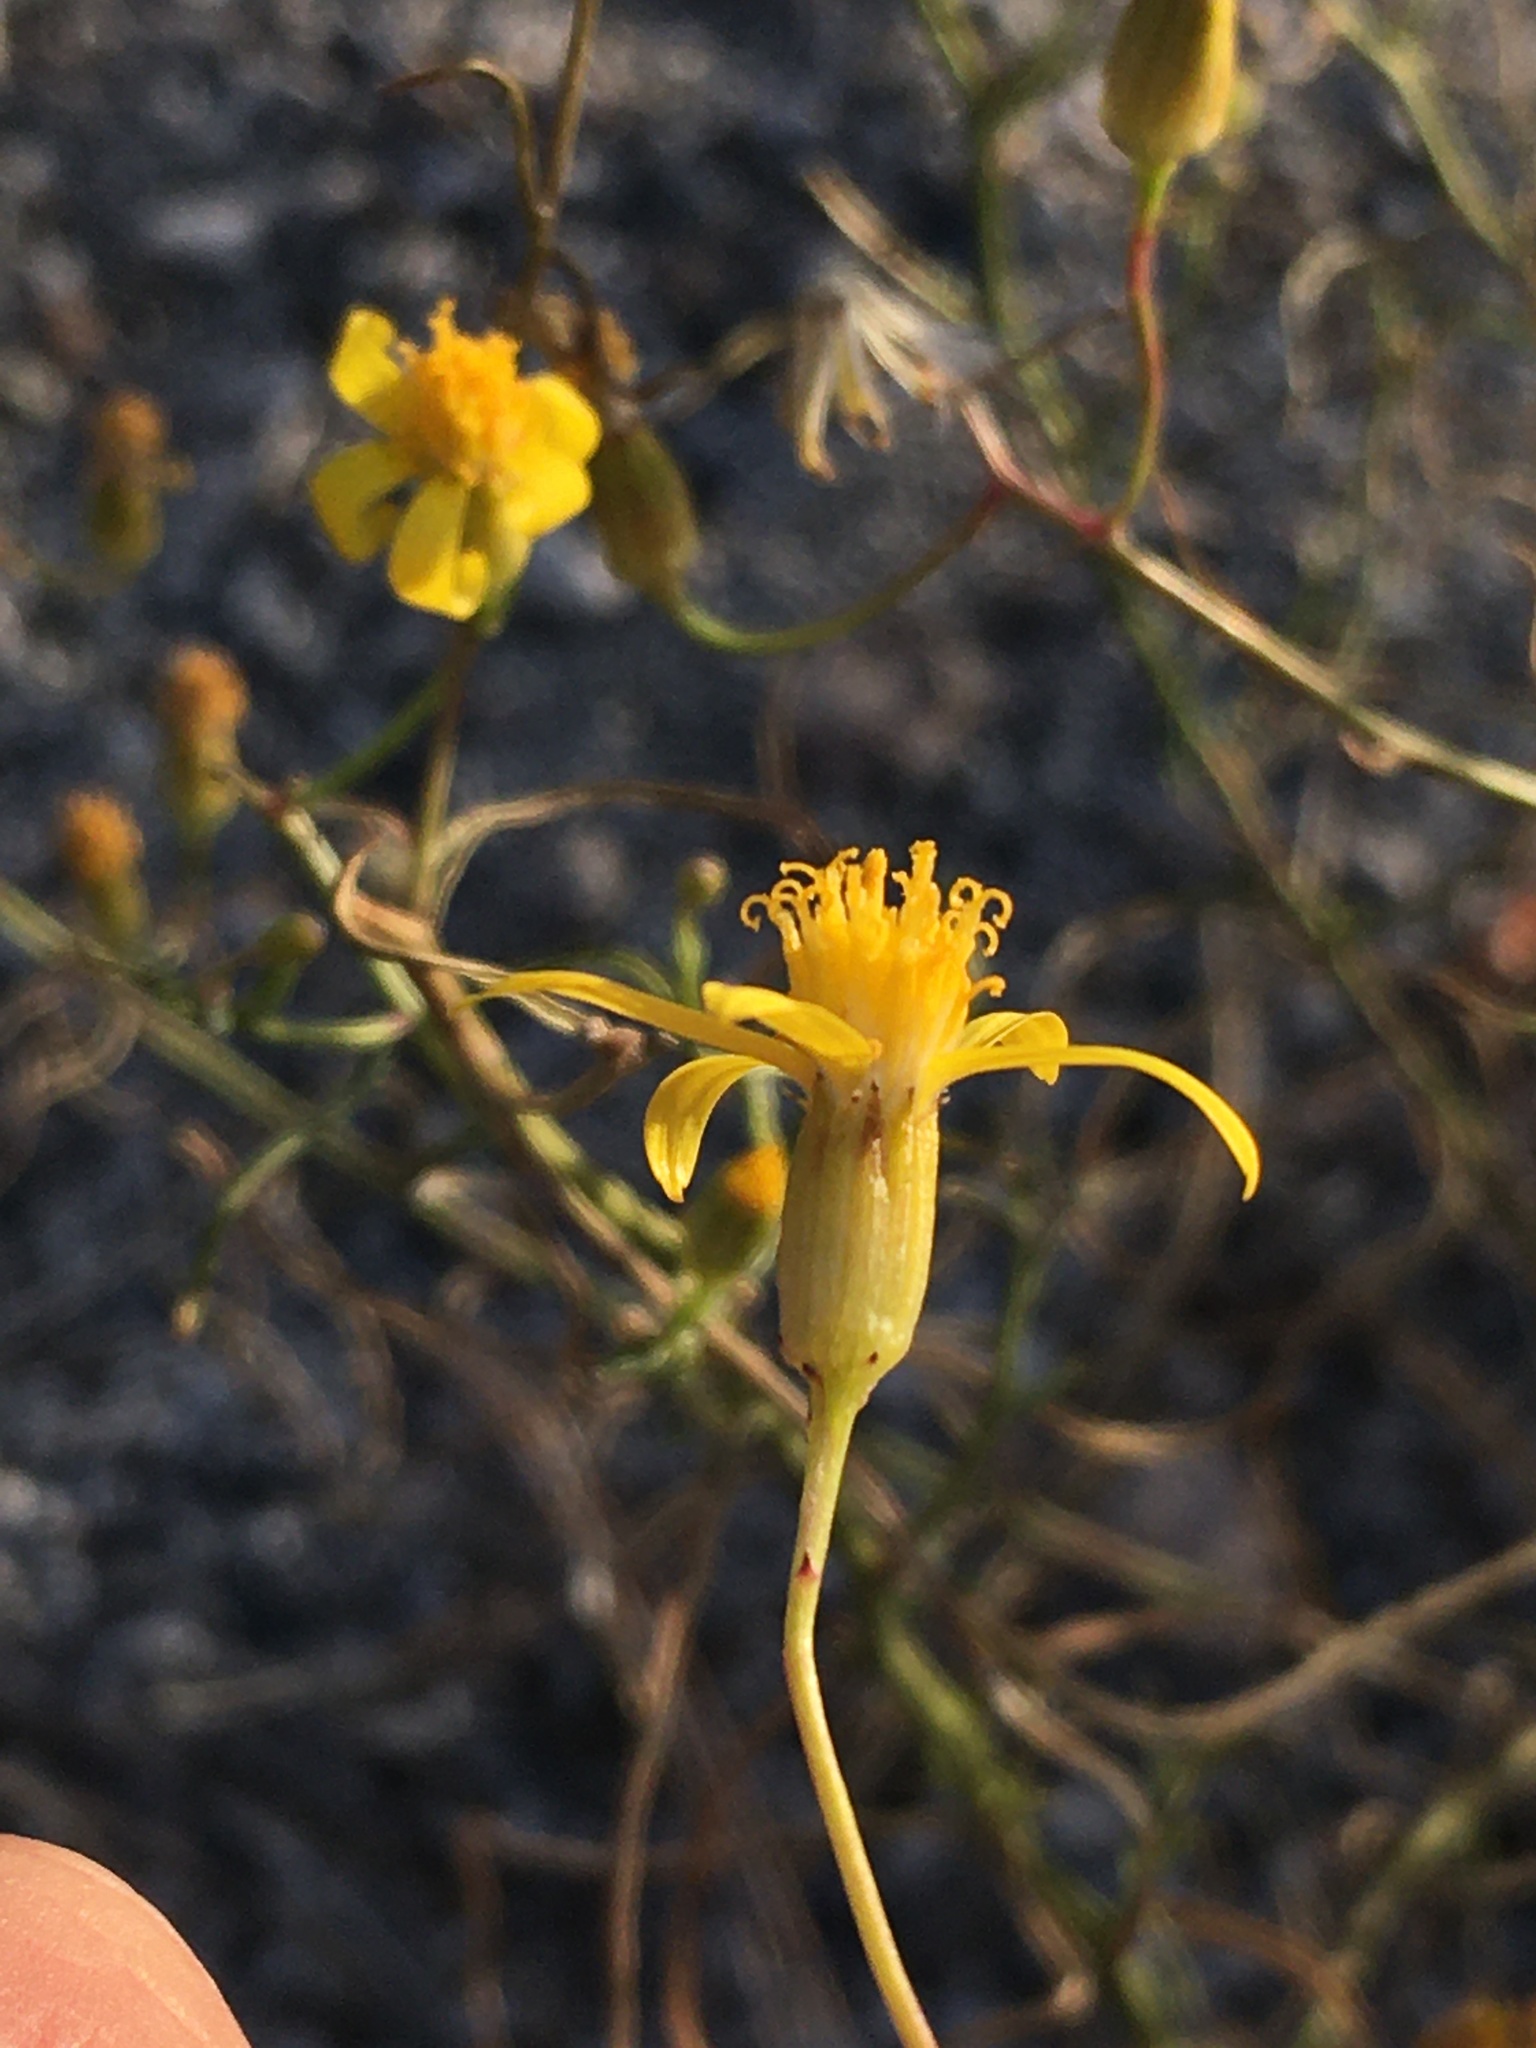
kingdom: Plantae
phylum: Tracheophyta
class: Magnoliopsida
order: Asterales
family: Asteraceae
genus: Senecio
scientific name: Senecio spartioides
